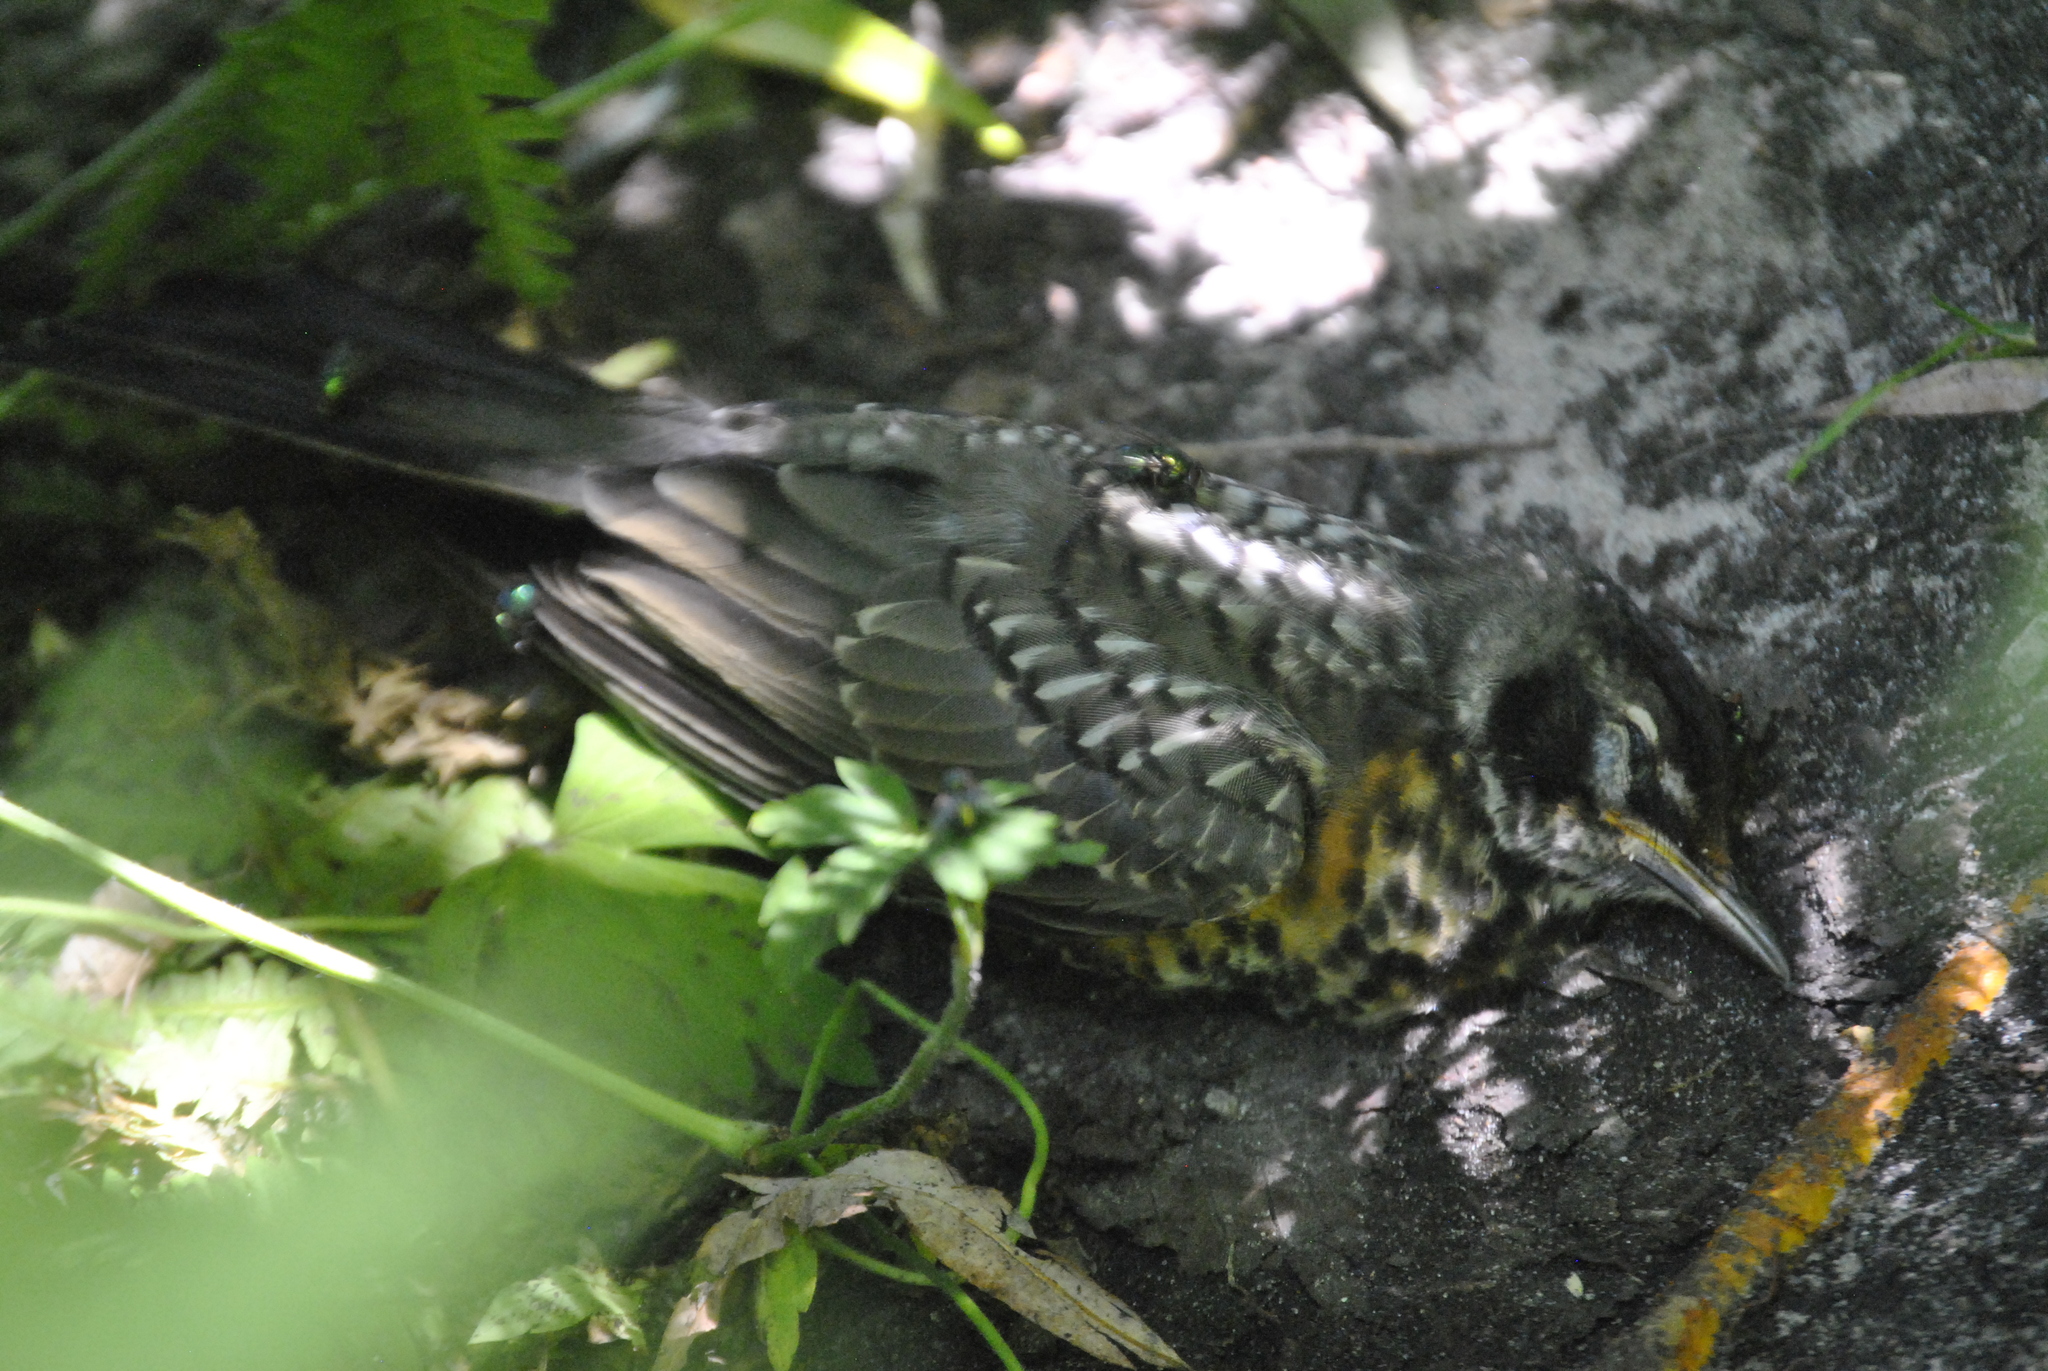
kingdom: Animalia
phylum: Chordata
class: Aves
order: Passeriformes
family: Turdidae
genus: Turdus
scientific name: Turdus migratorius
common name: American robin
